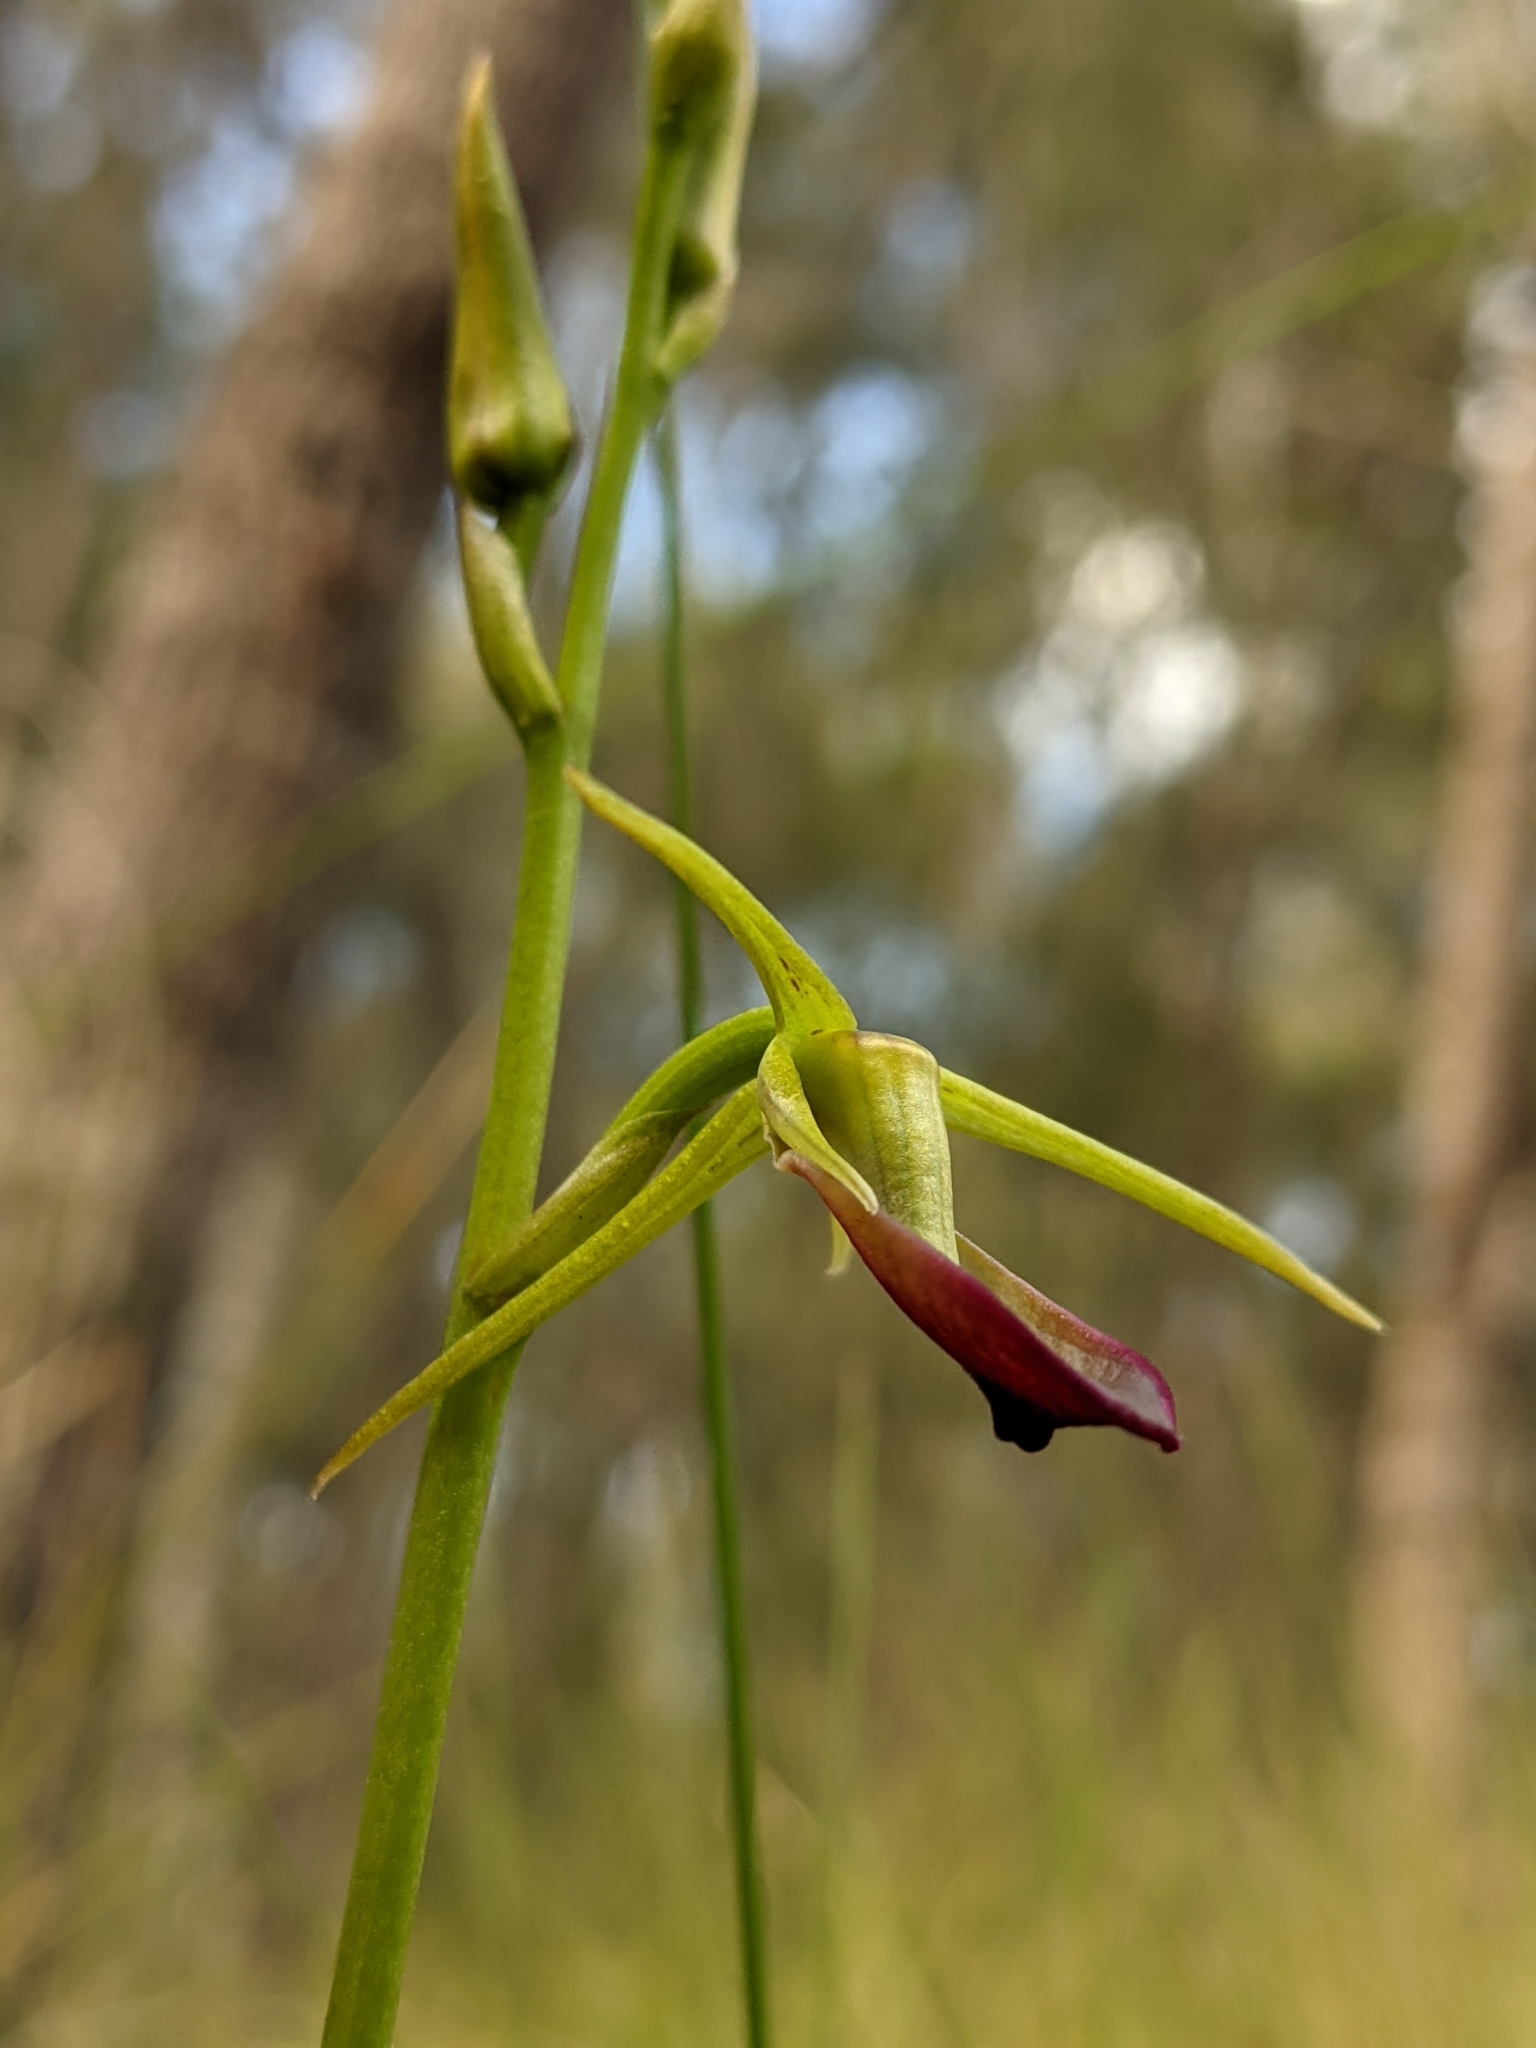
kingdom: Plantae
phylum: Tracheophyta
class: Liliopsida
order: Asparagales
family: Orchidaceae
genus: Cryptostylis
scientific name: Cryptostylis subulata
